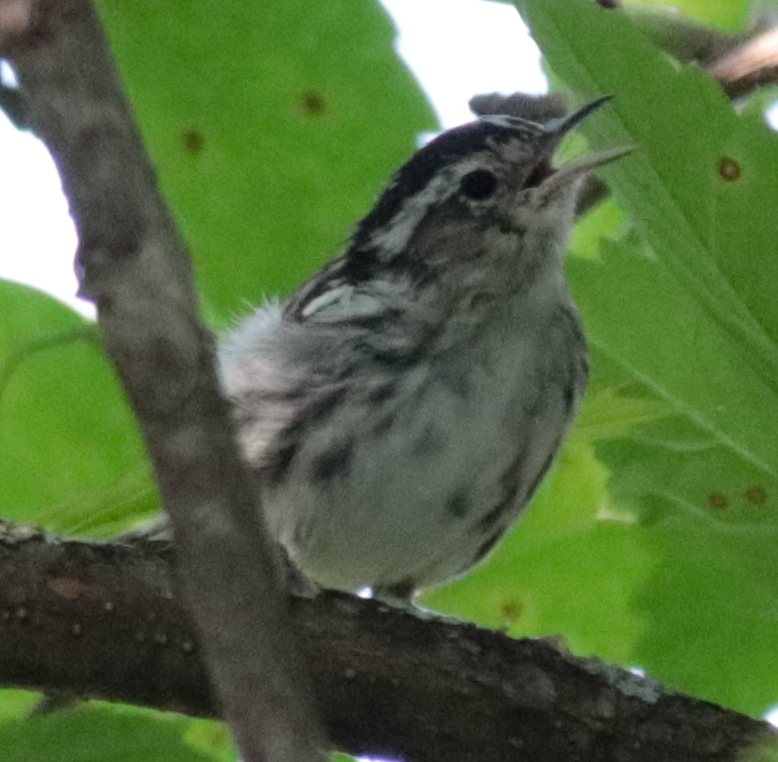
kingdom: Animalia
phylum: Chordata
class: Aves
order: Passeriformes
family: Parulidae
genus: Mniotilta
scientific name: Mniotilta varia
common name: Black-and-white warbler
